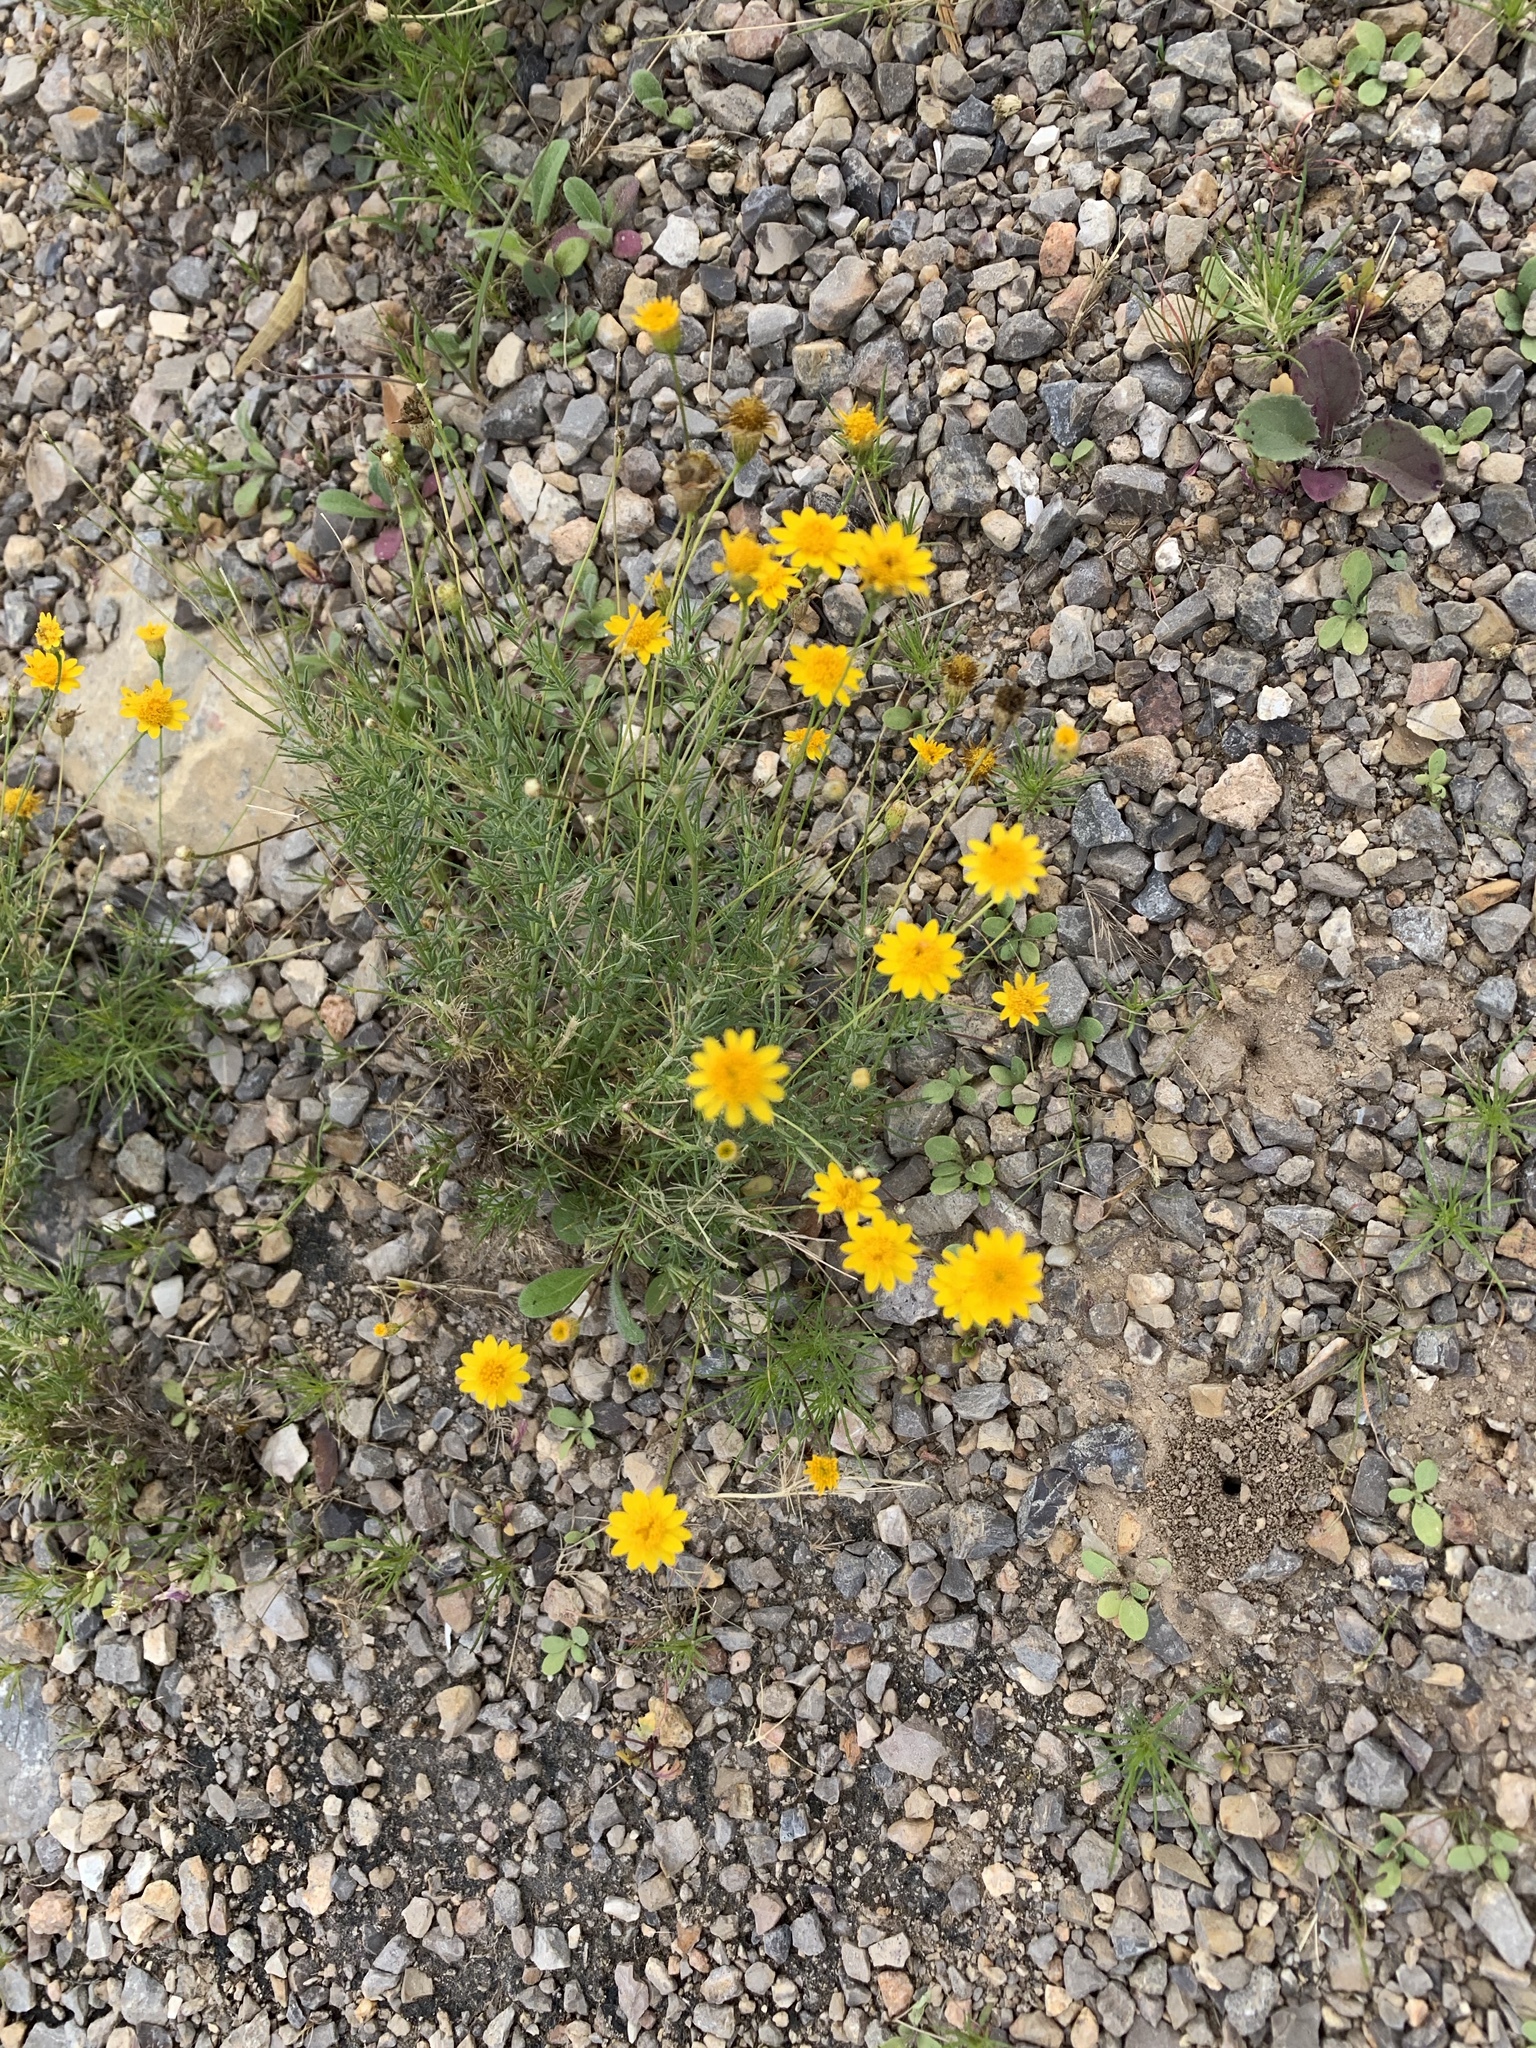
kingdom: Plantae
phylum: Tracheophyta
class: Magnoliopsida
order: Asterales
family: Asteraceae
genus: Thymophylla
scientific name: Thymophylla pentachaeta
